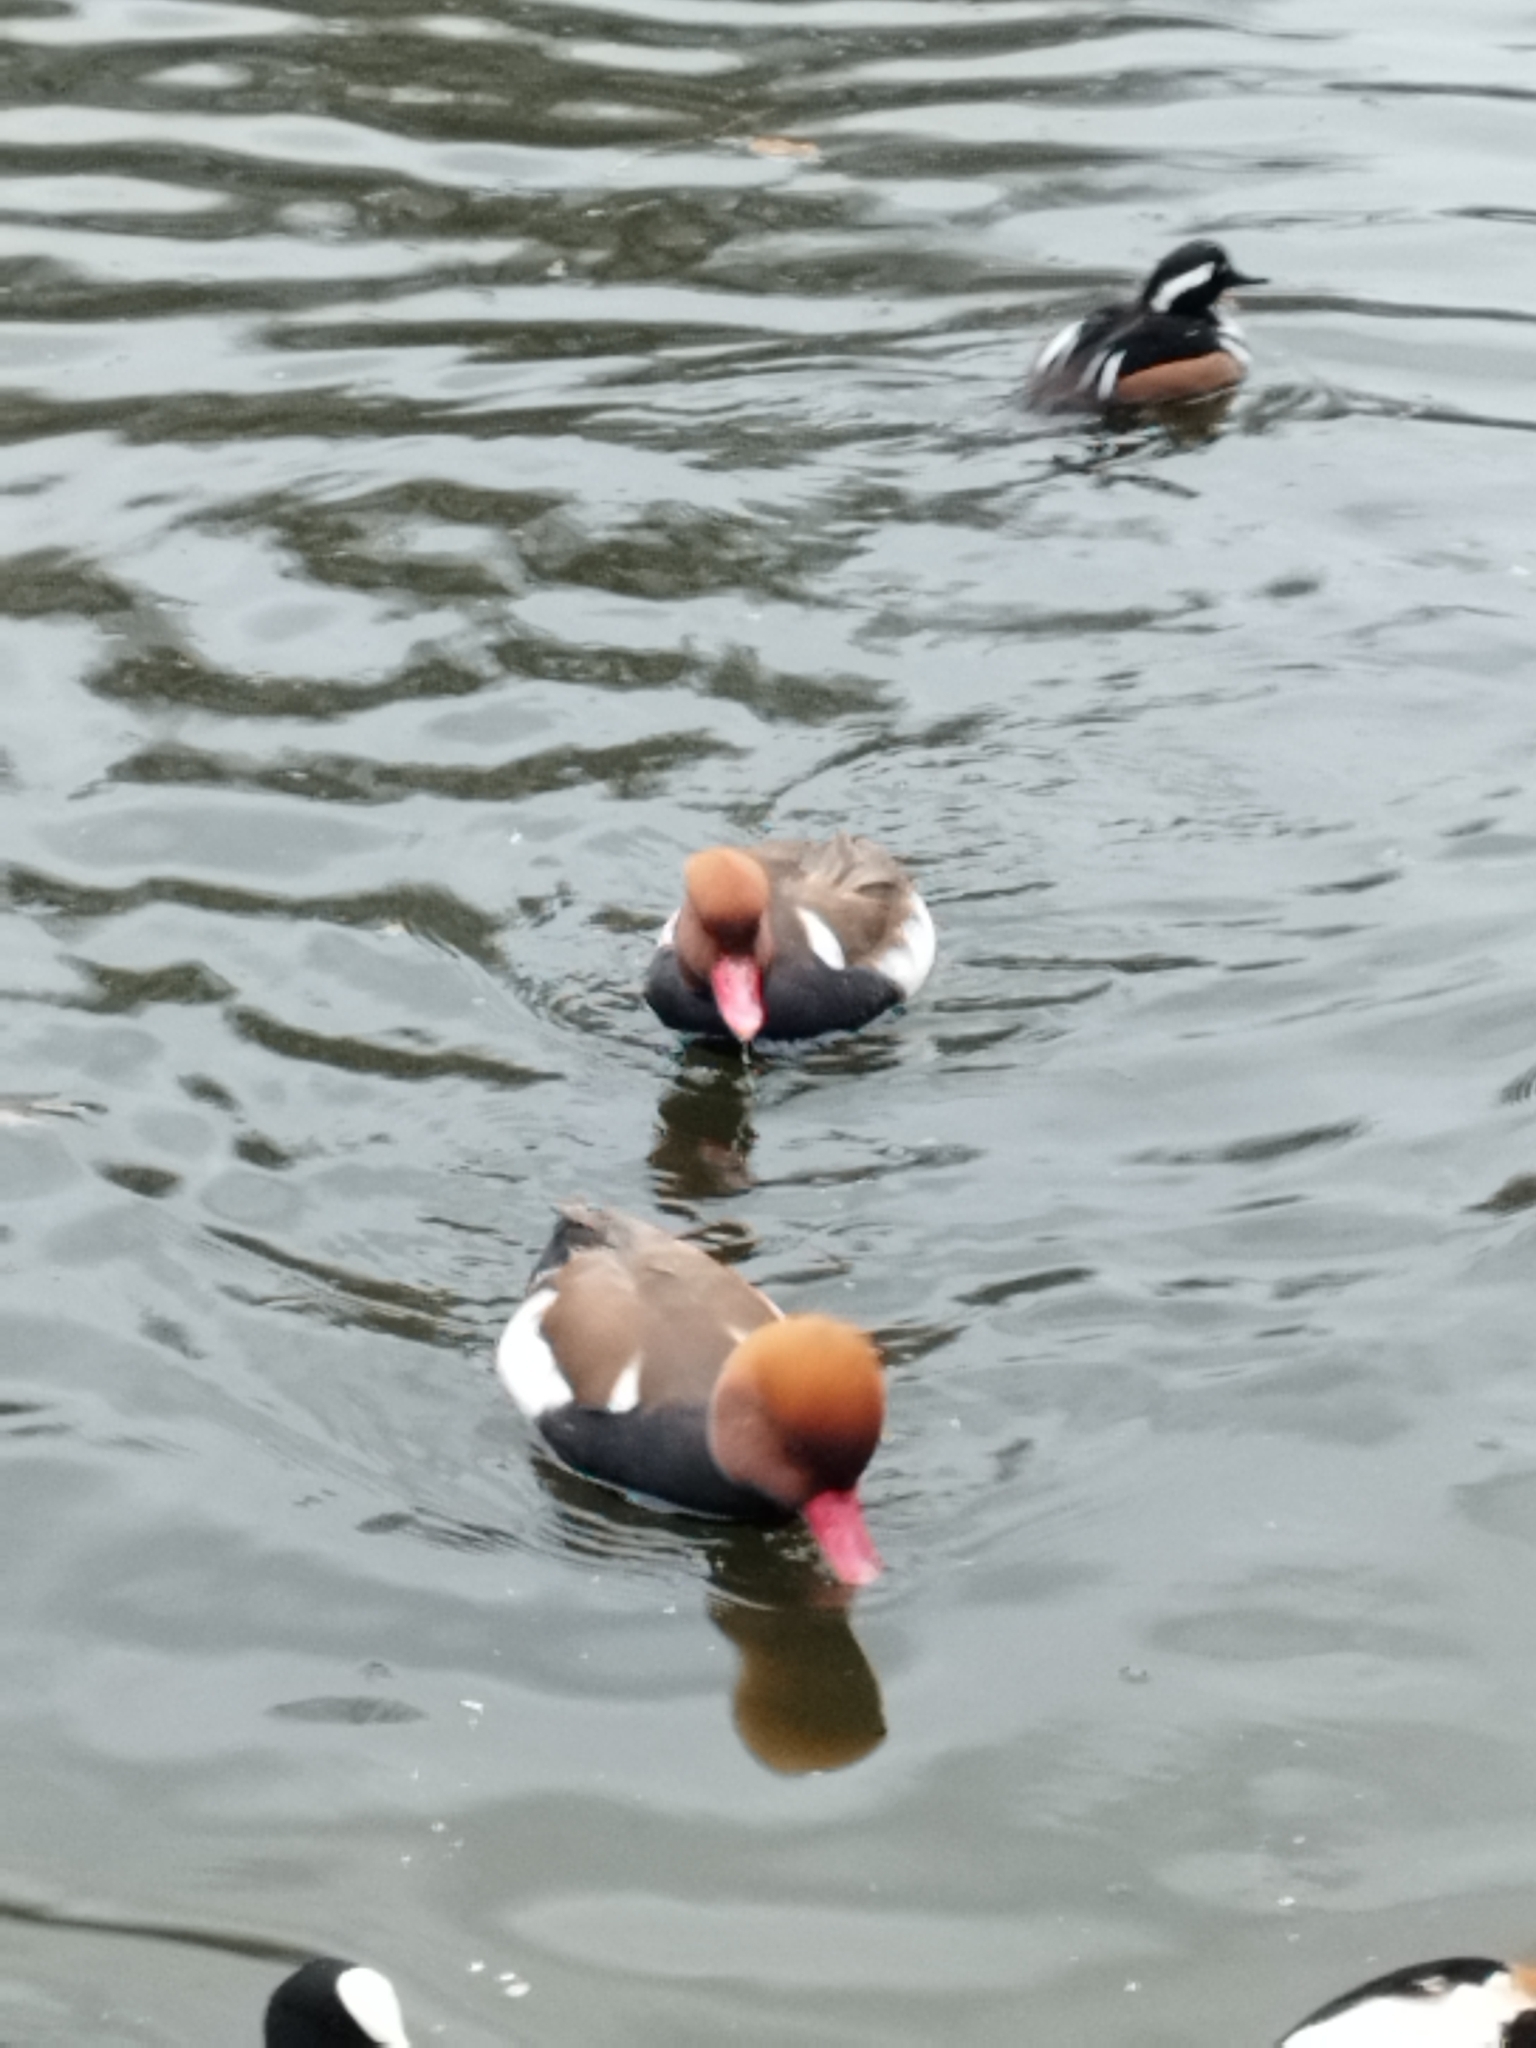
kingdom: Animalia
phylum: Chordata
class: Aves
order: Anseriformes
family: Anatidae
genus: Netta
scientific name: Netta rufina
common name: Red-crested pochard
